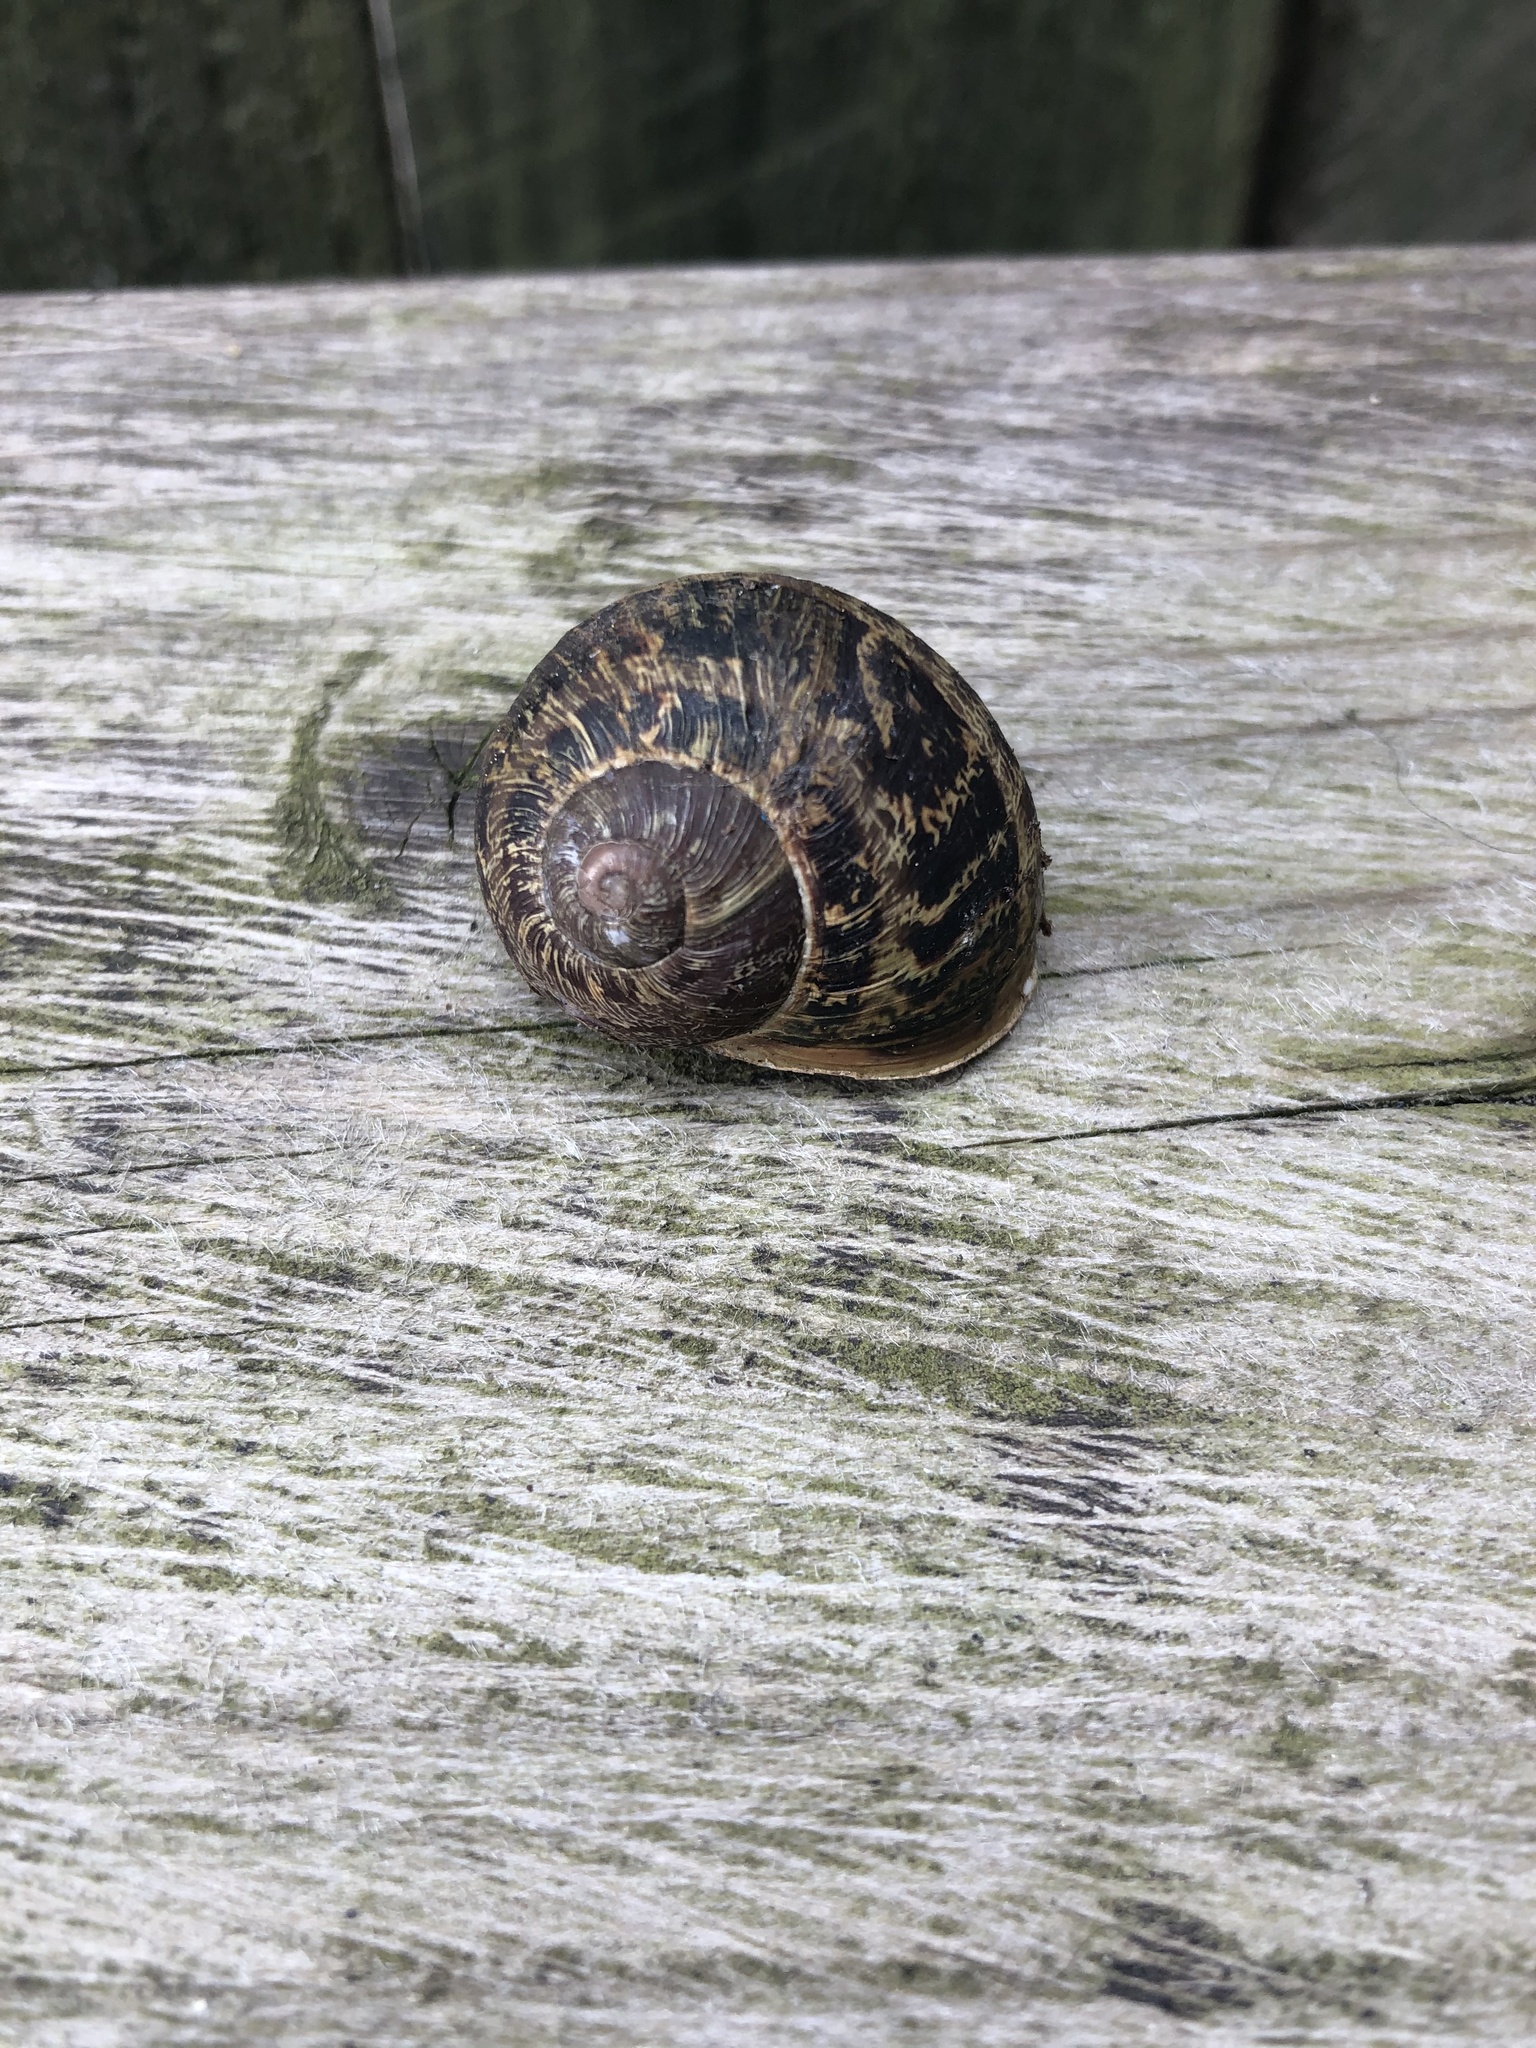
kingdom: Animalia
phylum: Mollusca
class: Gastropoda
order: Stylommatophora
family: Helicidae
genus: Cornu
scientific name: Cornu aspersum
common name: Brown garden snail
